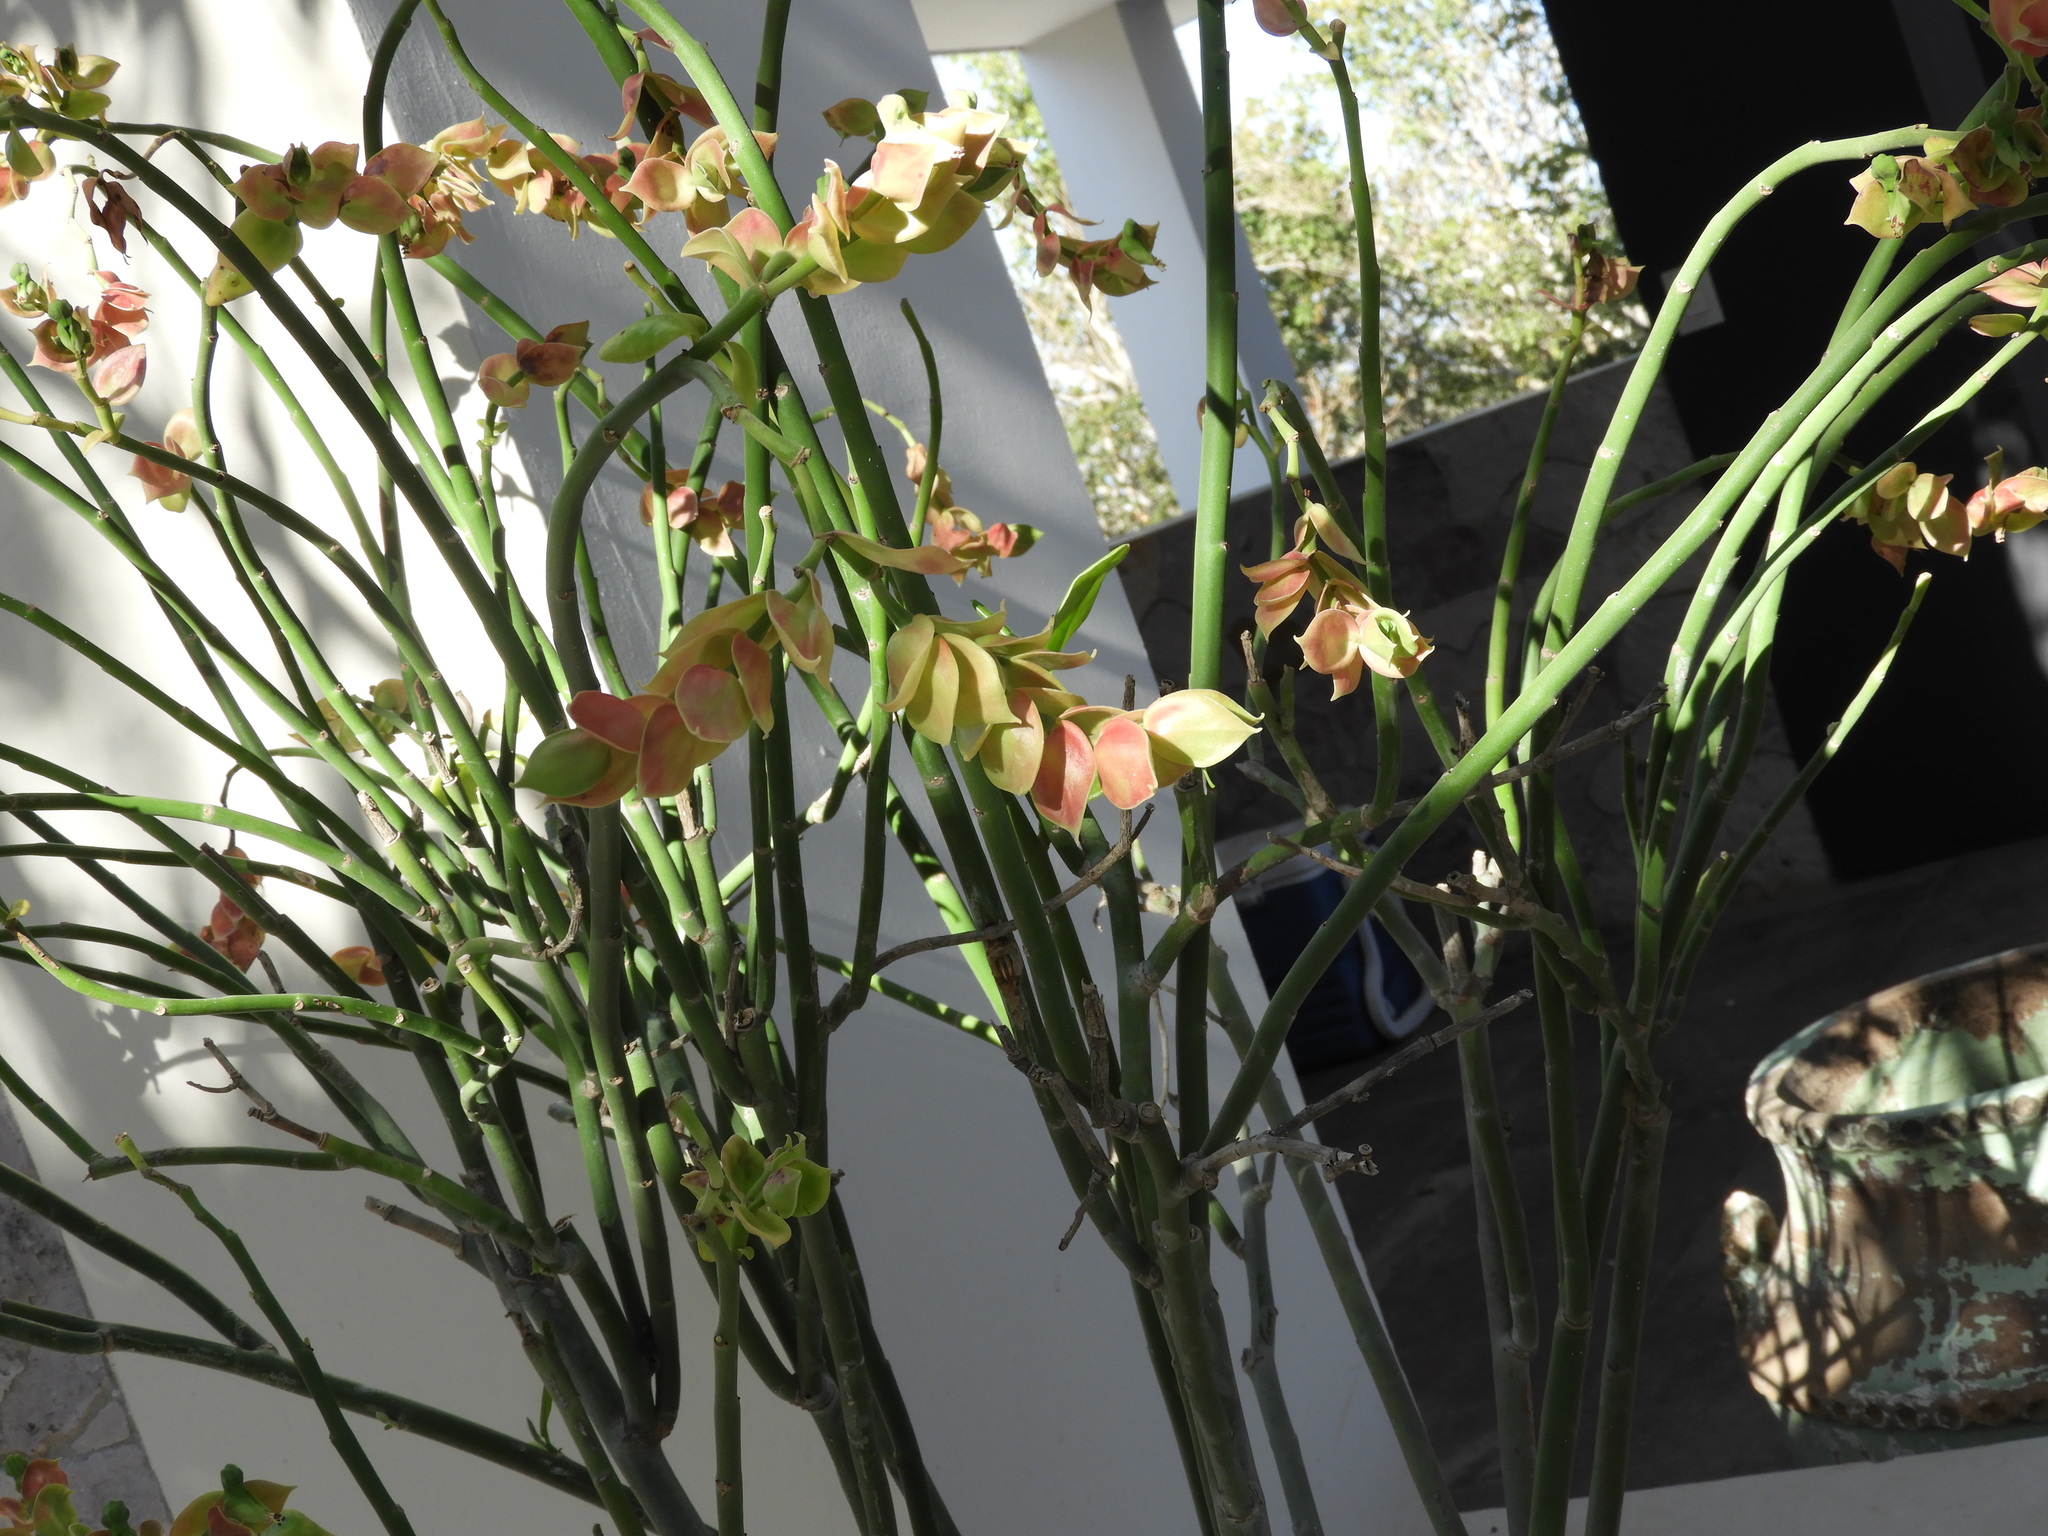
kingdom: Plantae
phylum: Tracheophyta
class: Magnoliopsida
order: Malpighiales
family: Euphorbiaceae
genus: Euphorbia
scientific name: Euphorbia bracteata
